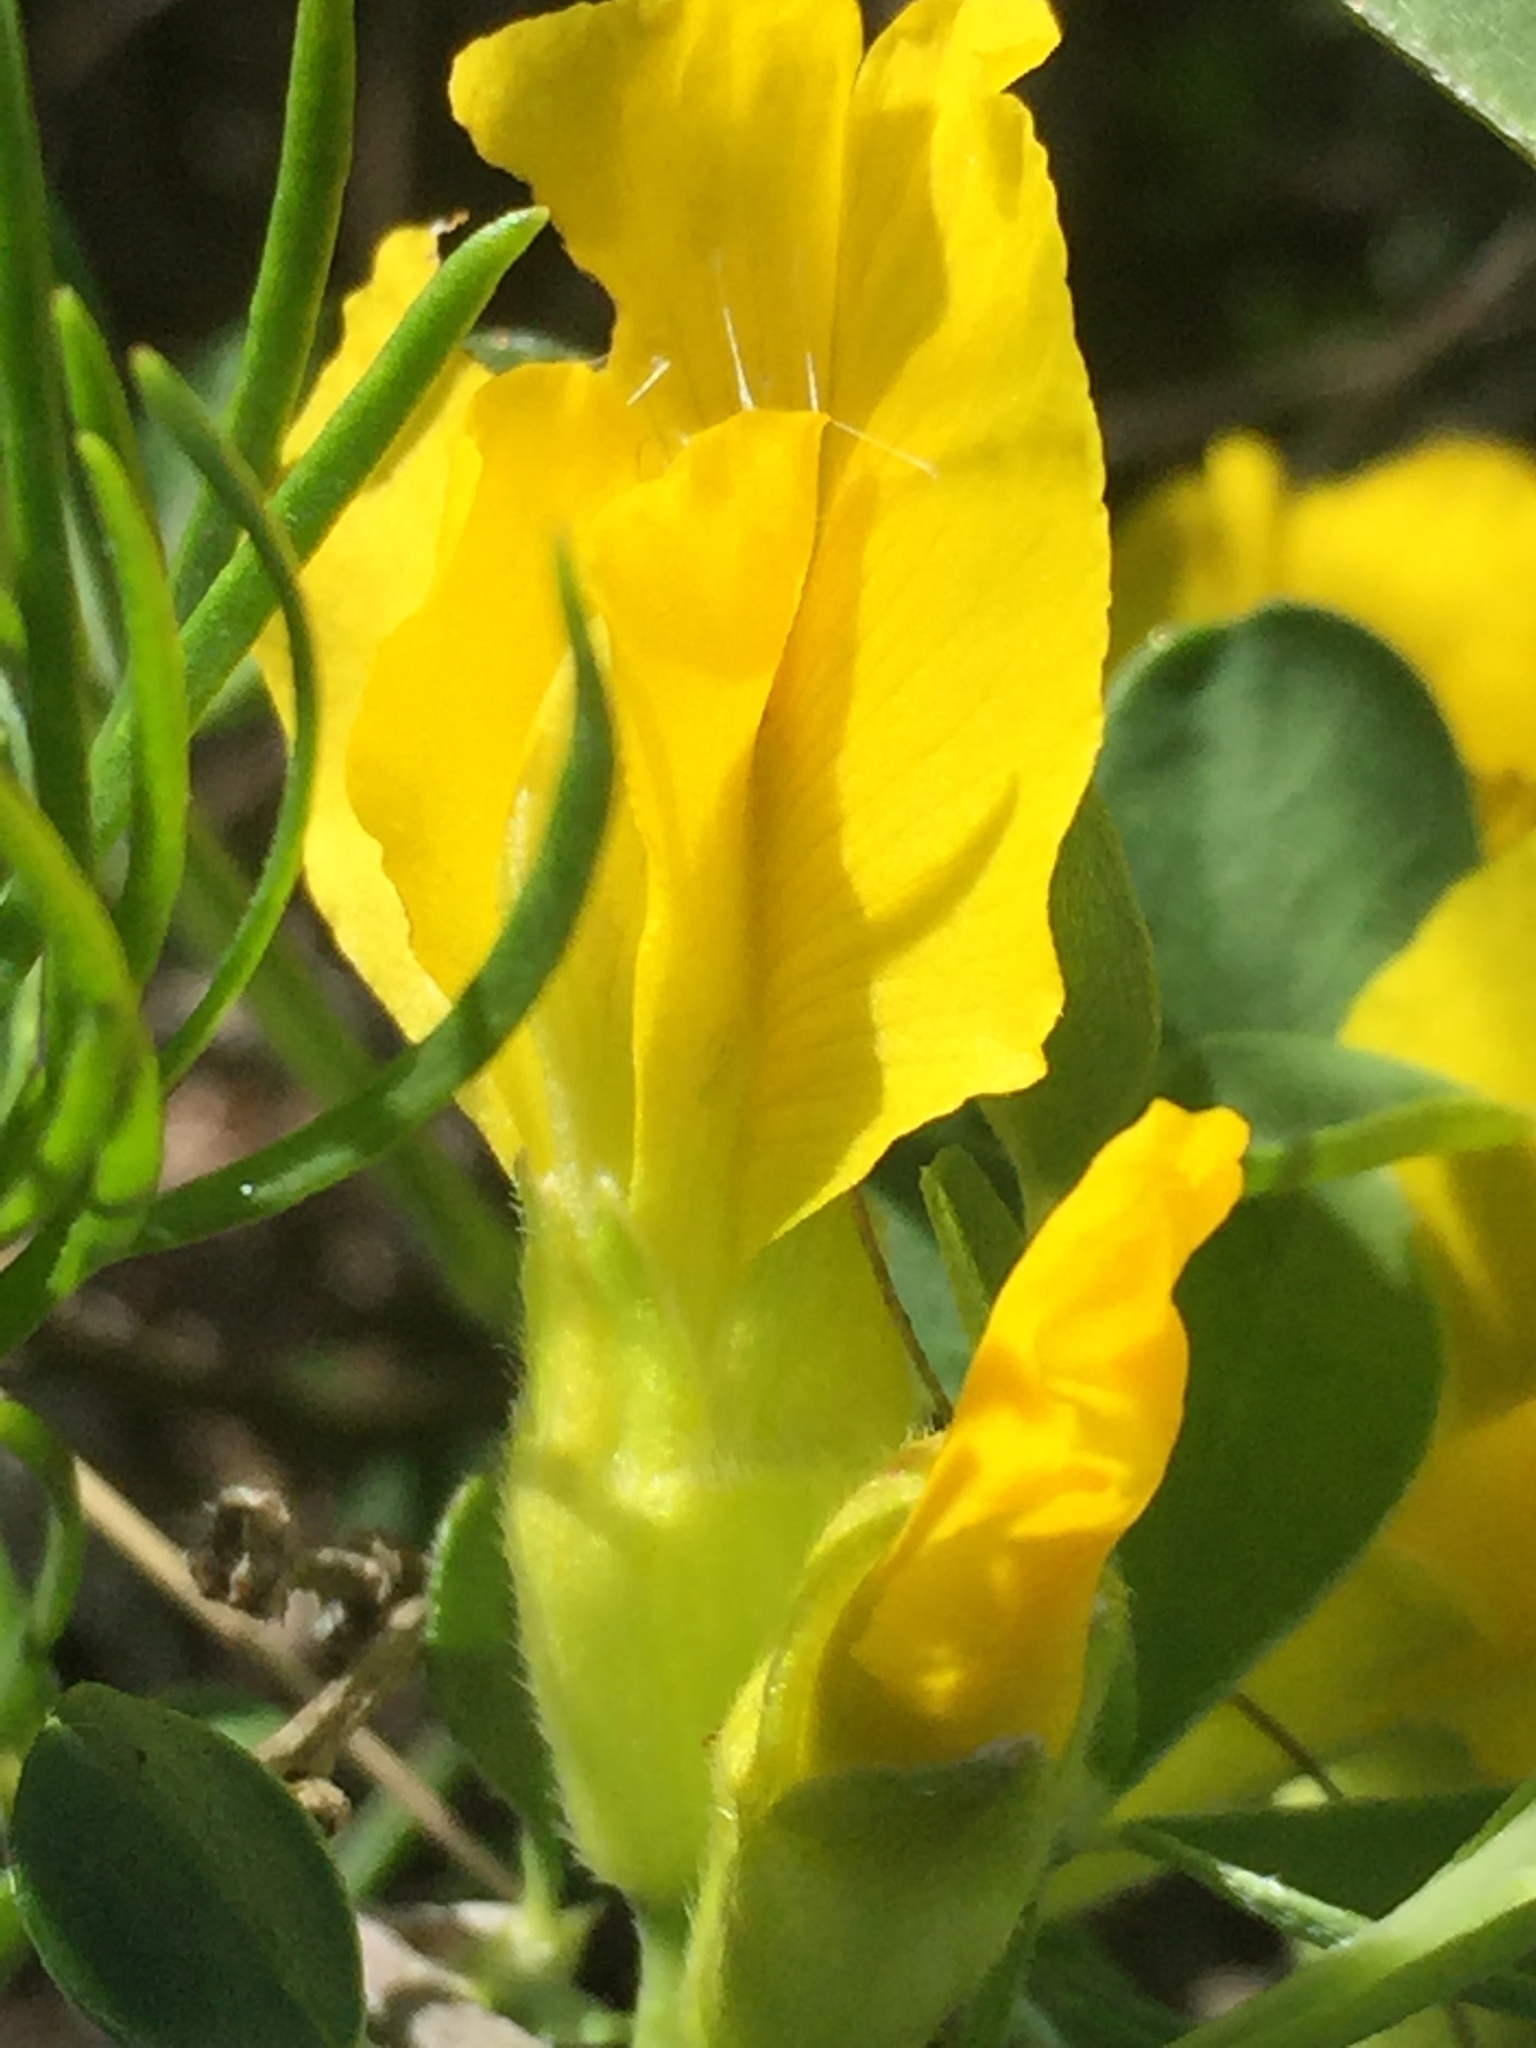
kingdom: Plantae
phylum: Tracheophyta
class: Magnoliopsida
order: Fabales
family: Fabaceae
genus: Chamaecytisus
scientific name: Chamaecytisus ruthenicus
